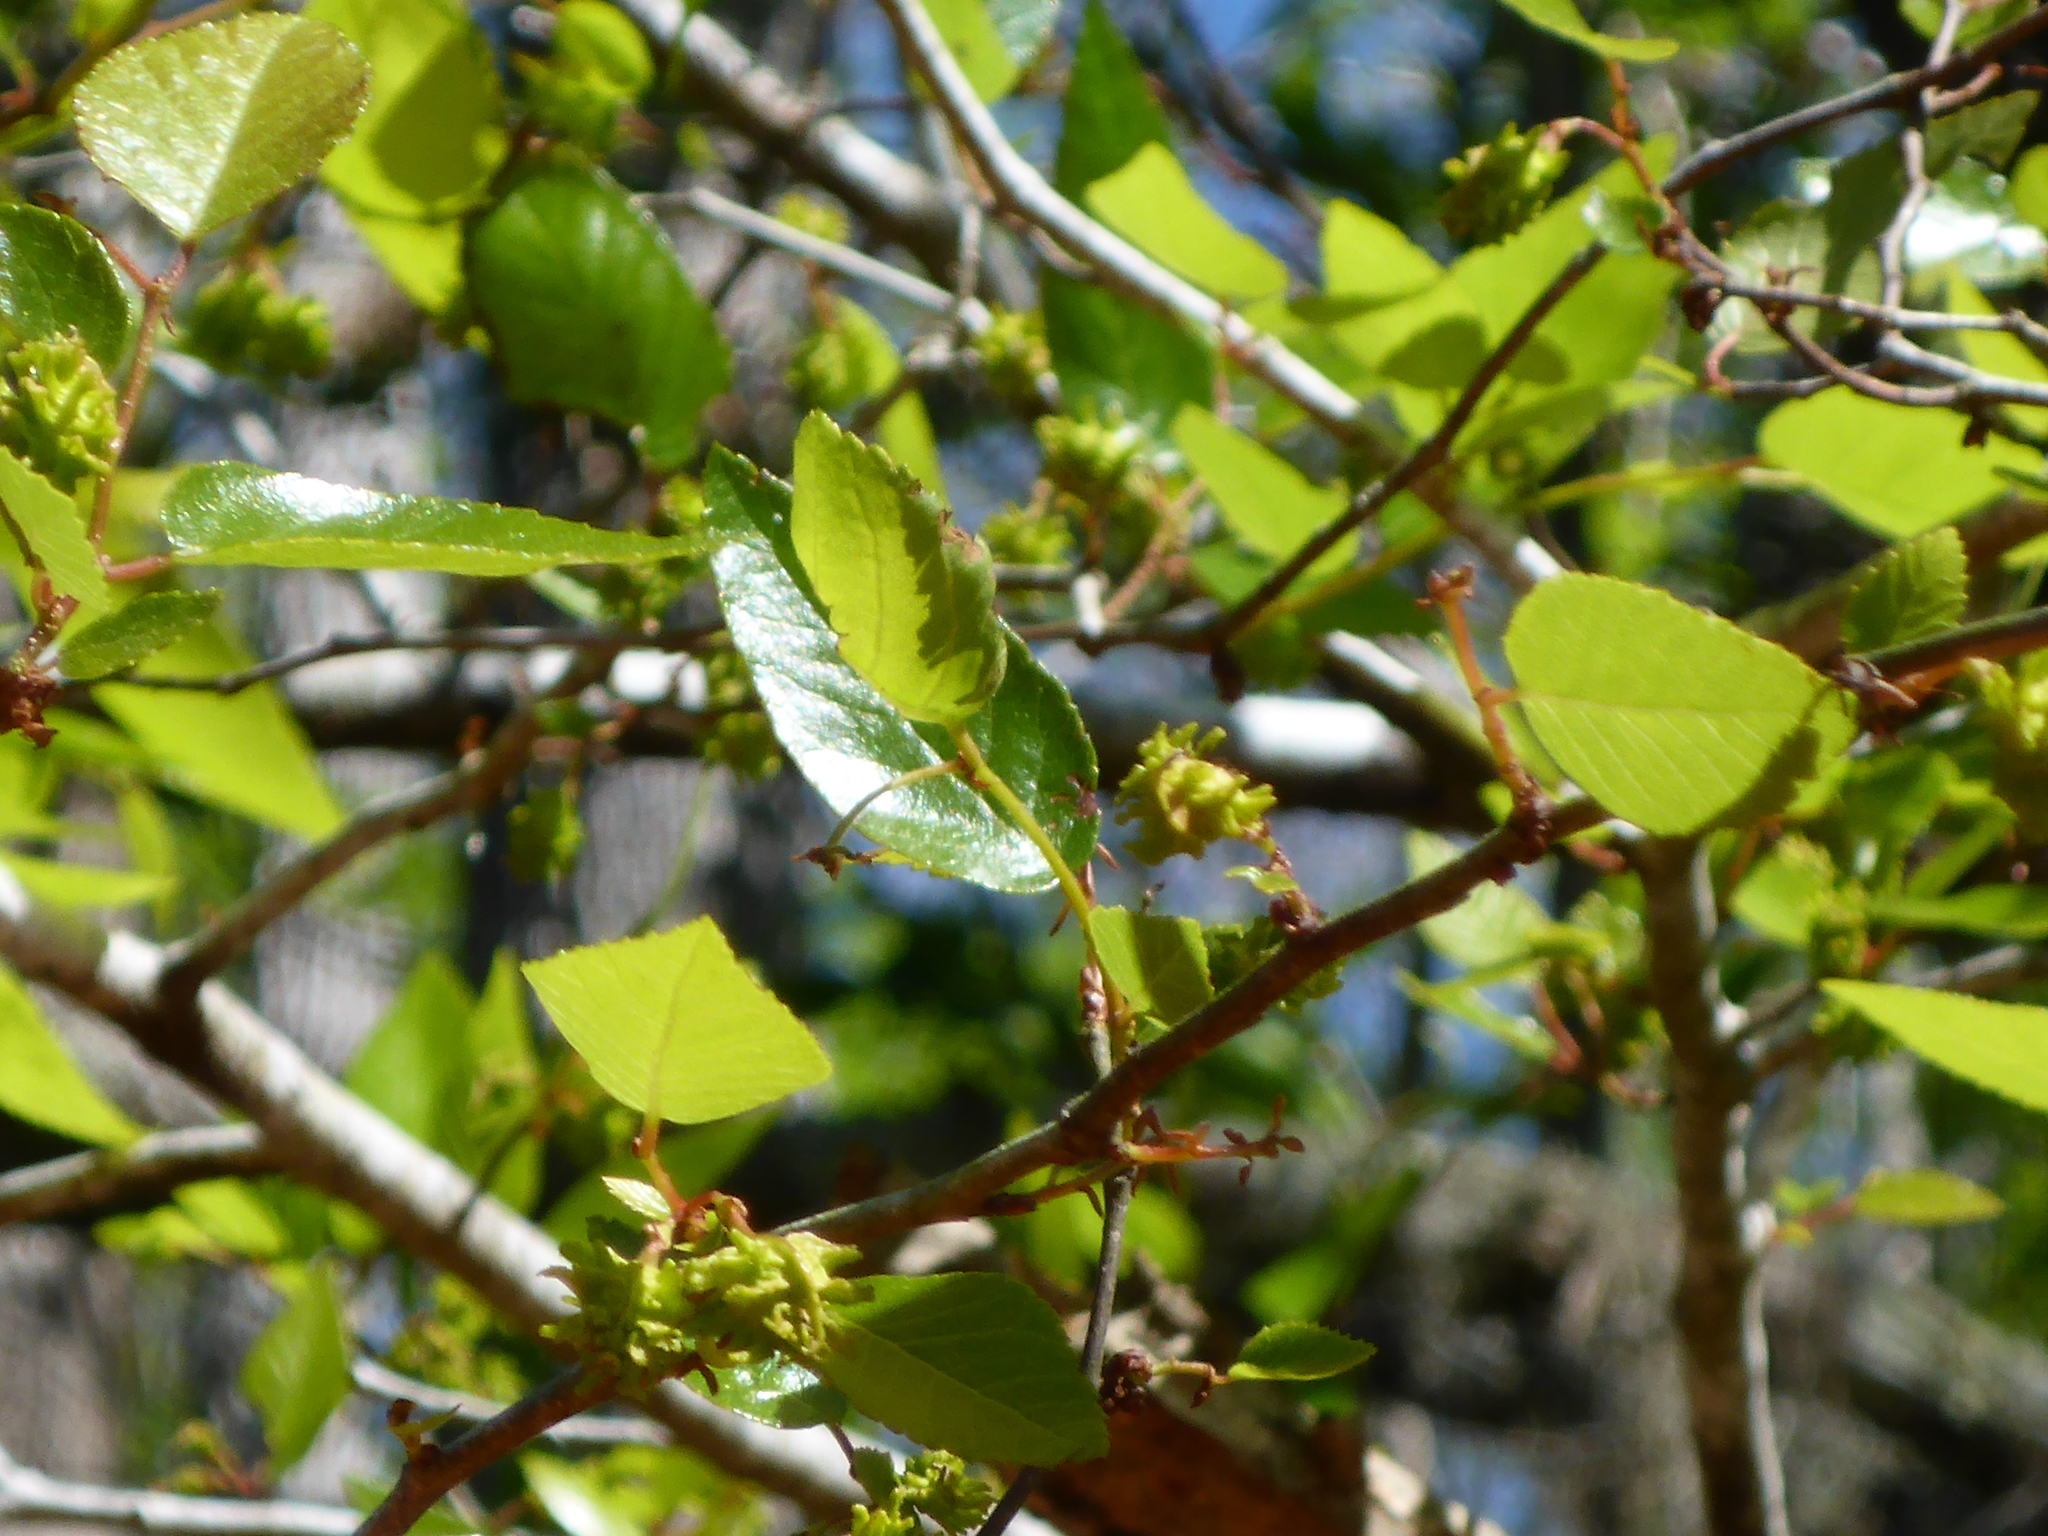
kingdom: Plantae
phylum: Tracheophyta
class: Magnoliopsida
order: Rosales
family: Ulmaceae
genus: Planera
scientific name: Planera aquatica
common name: Water-elm
